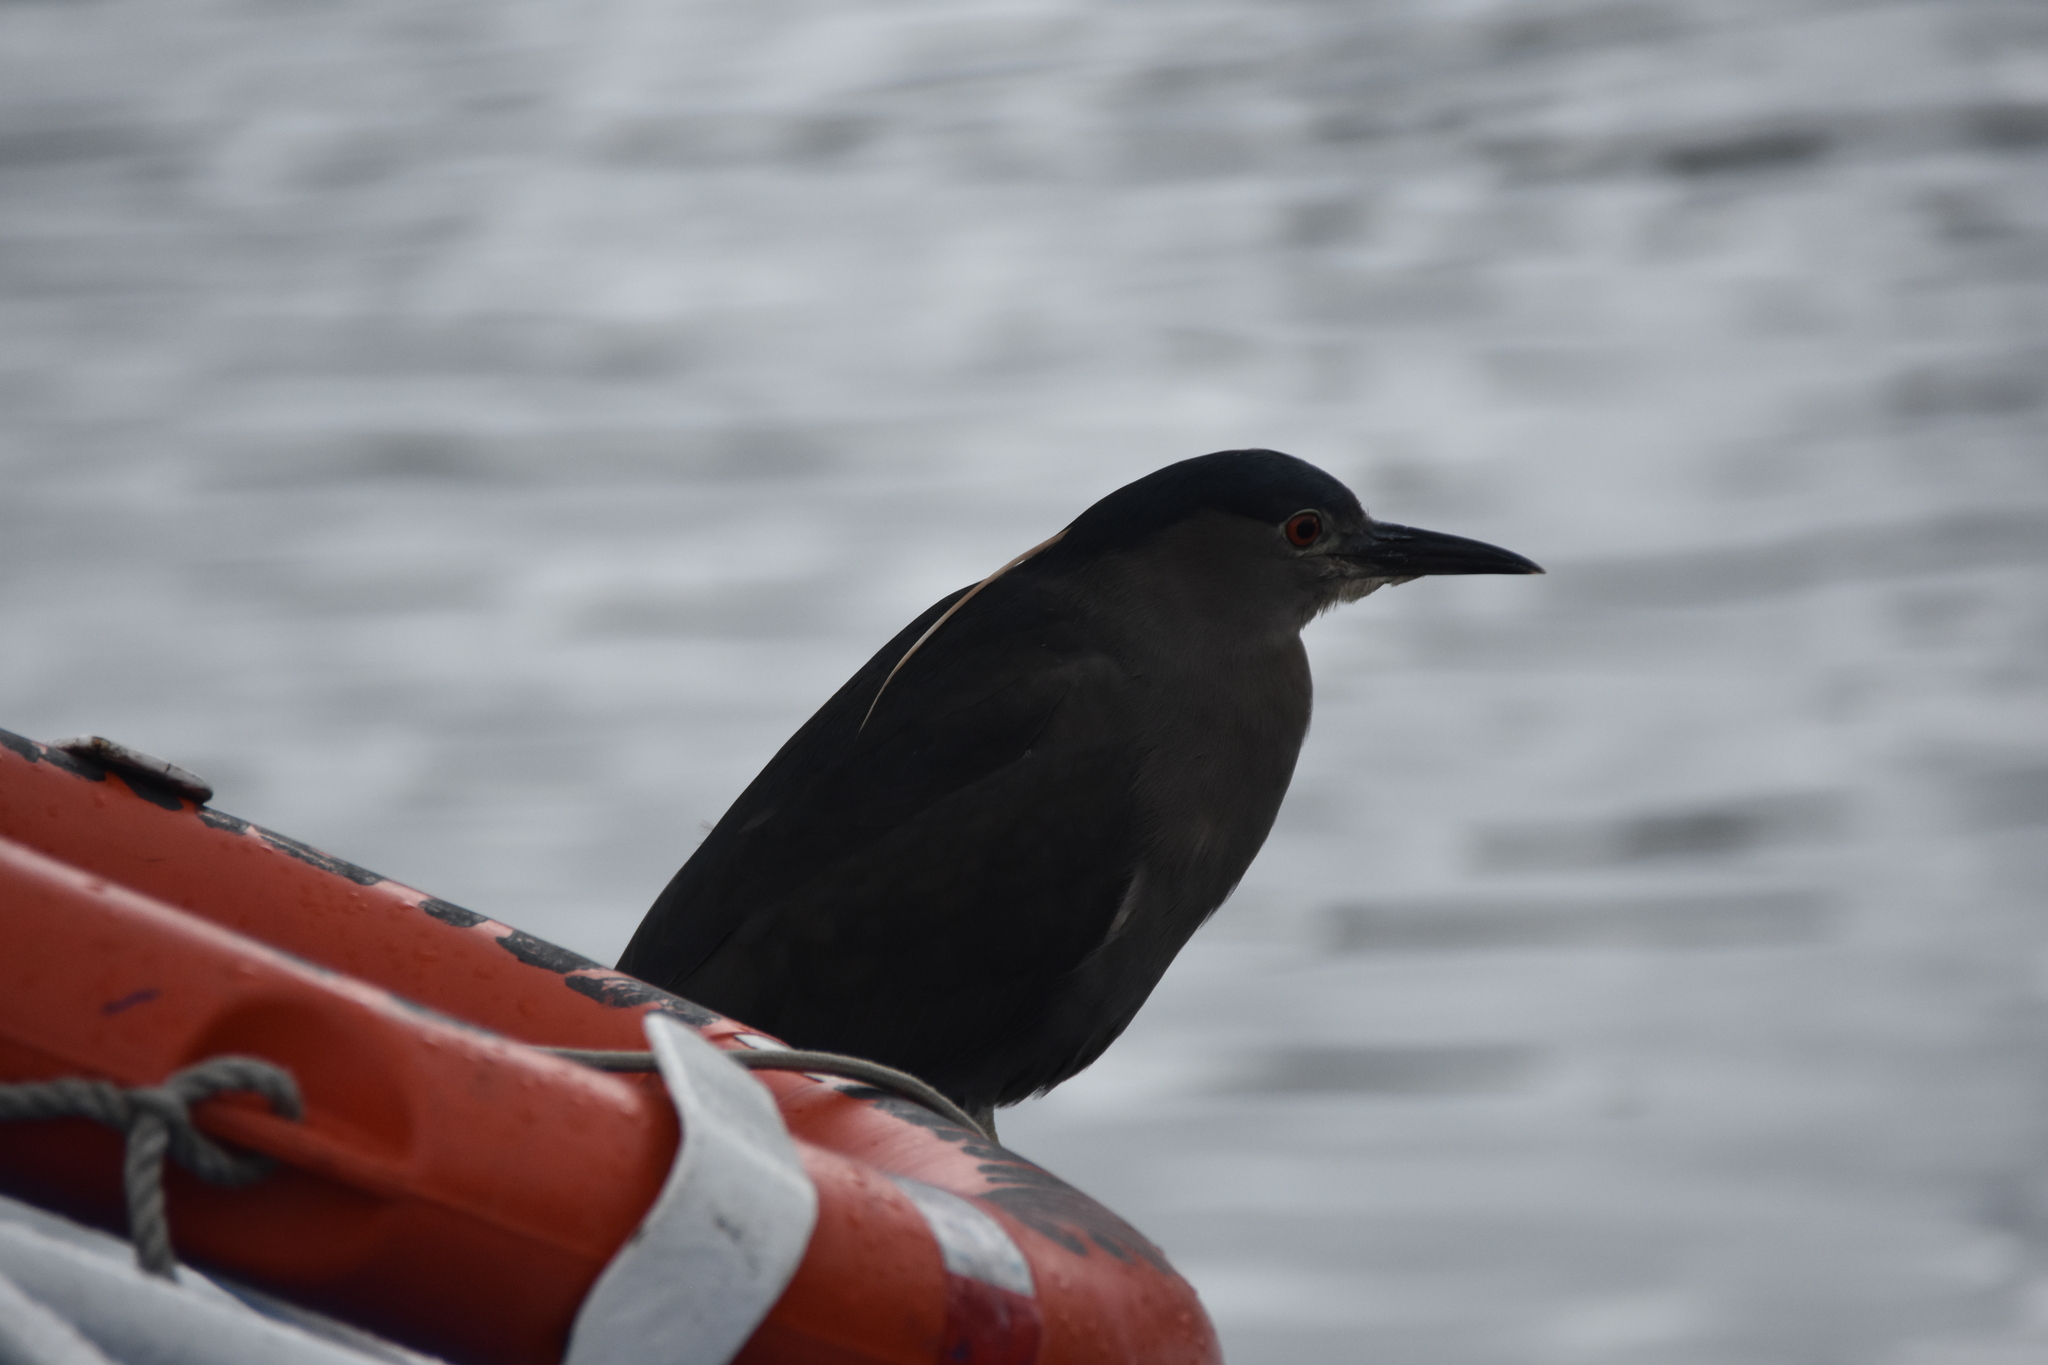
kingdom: Animalia
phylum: Chordata
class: Aves
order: Pelecaniformes
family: Ardeidae
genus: Nycticorax
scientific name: Nycticorax nycticorax
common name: Black-crowned night heron
